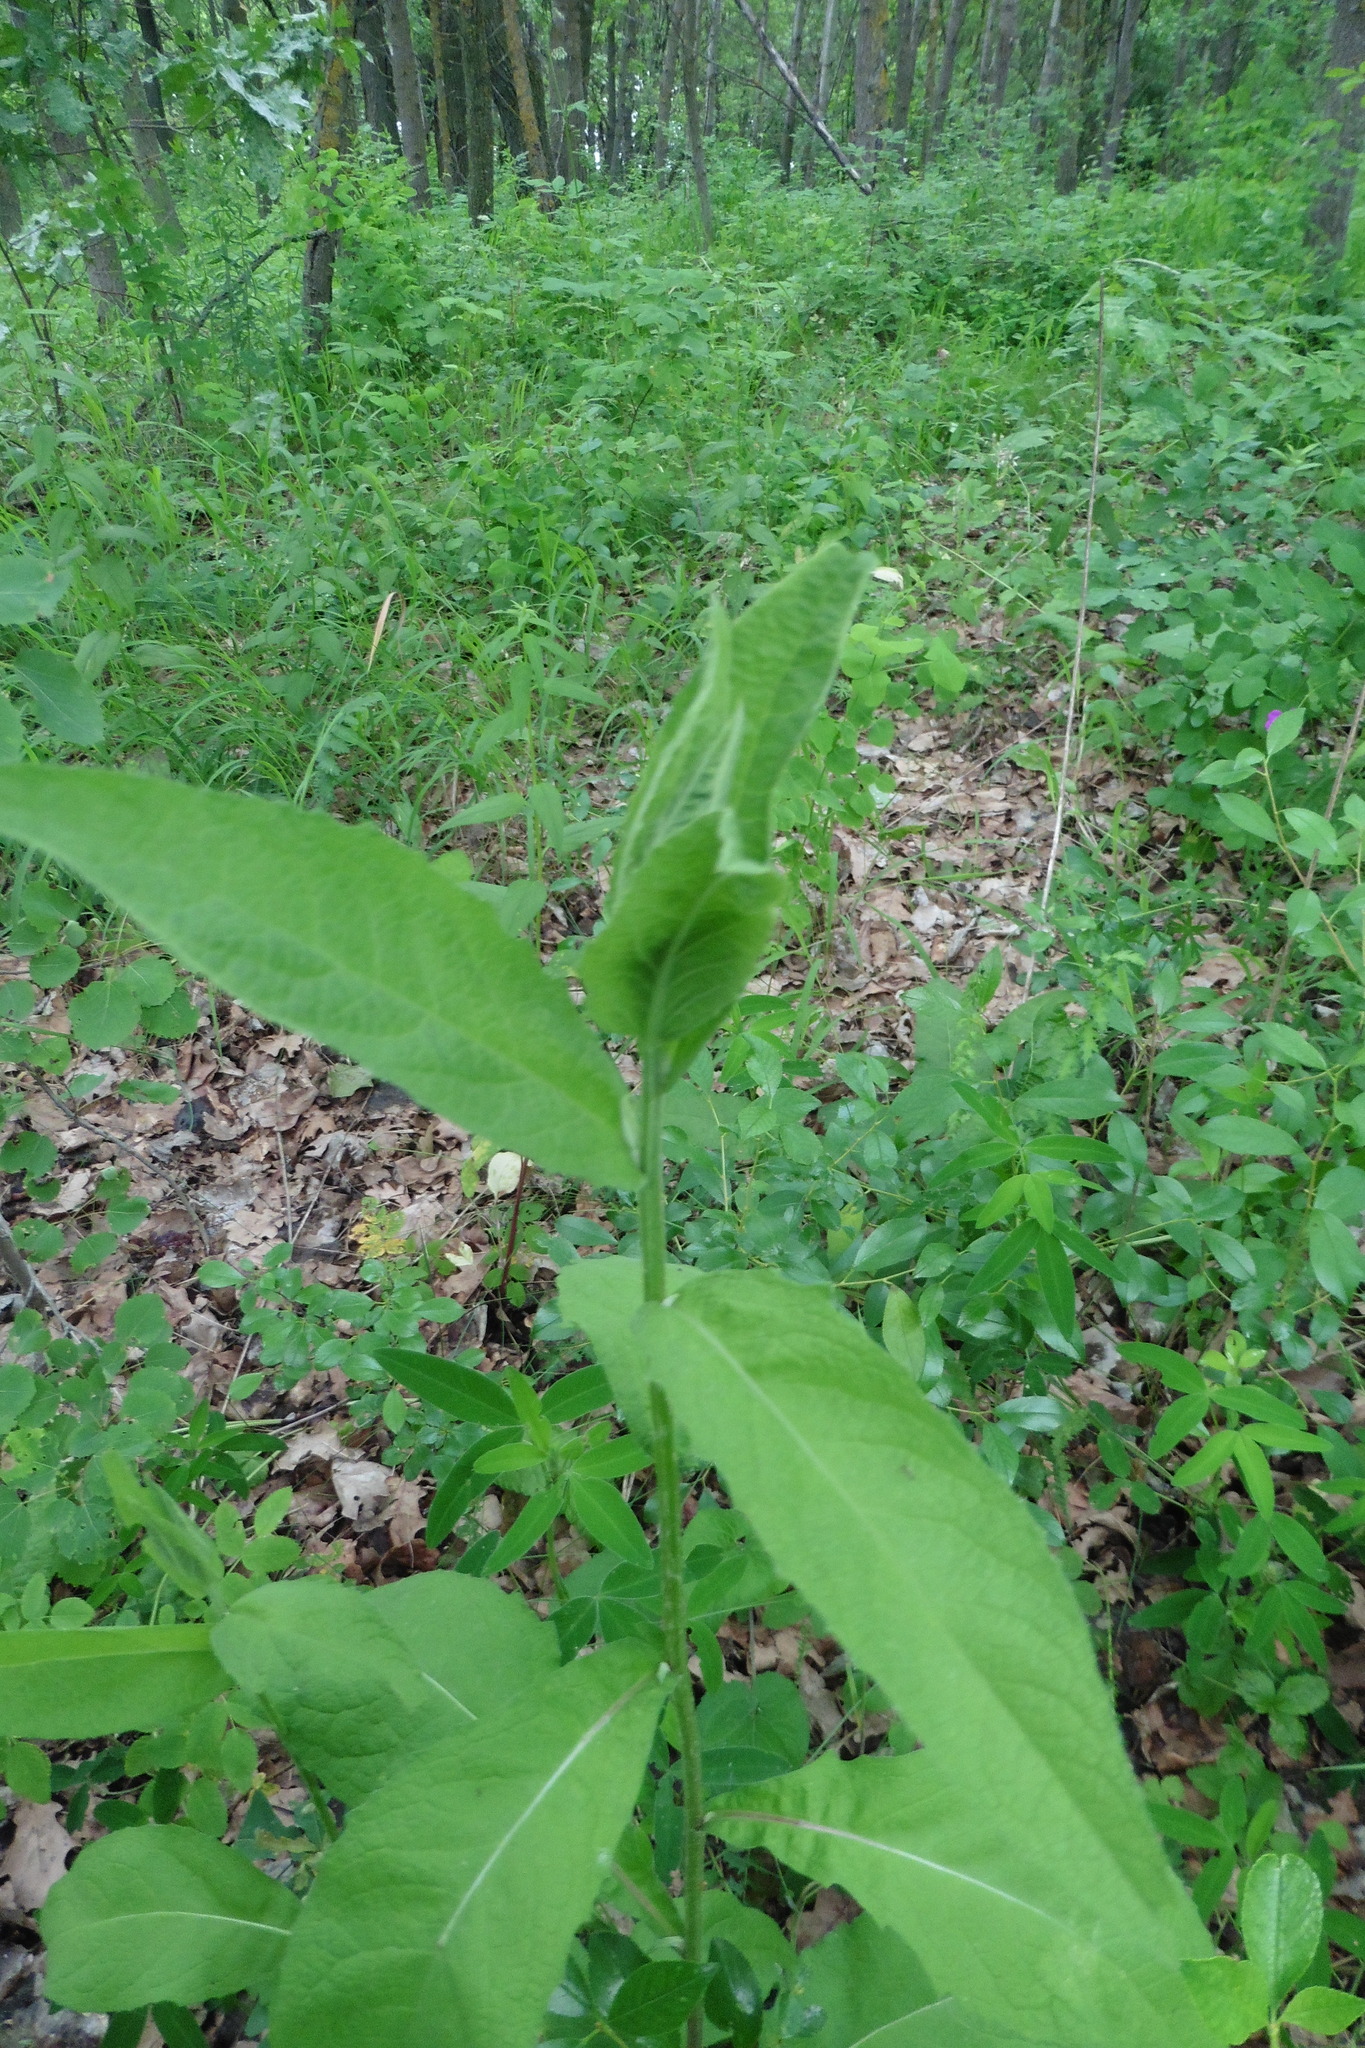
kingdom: Plantae
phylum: Tracheophyta
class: Magnoliopsida
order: Asterales
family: Asteraceae
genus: Centaurea
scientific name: Centaurea phrygia
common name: Wig knapweed
